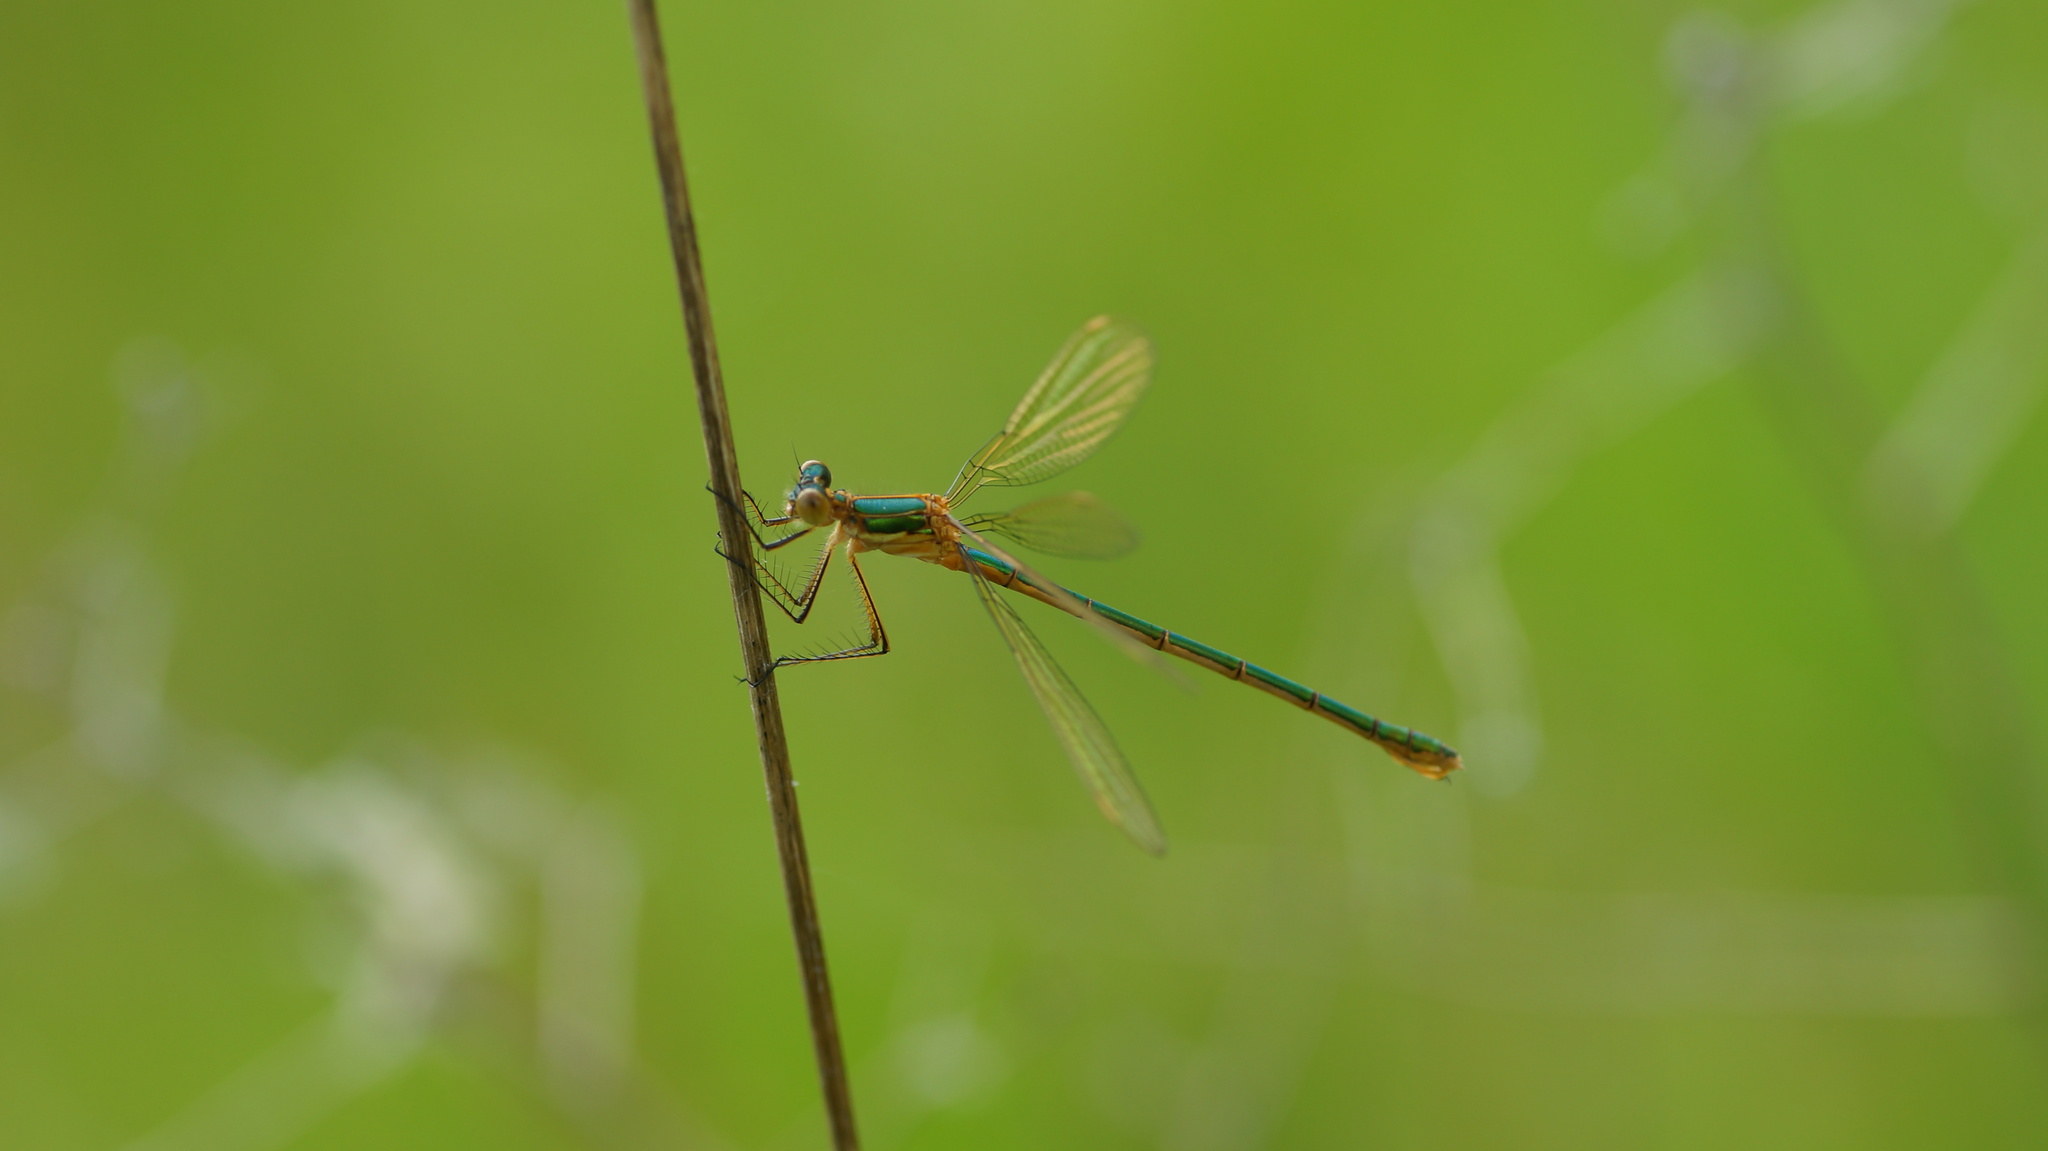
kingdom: Animalia
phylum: Arthropoda
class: Insecta
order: Odonata
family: Lestidae
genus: Lestes
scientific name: Lestes sponsa
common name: Common spreadwing
